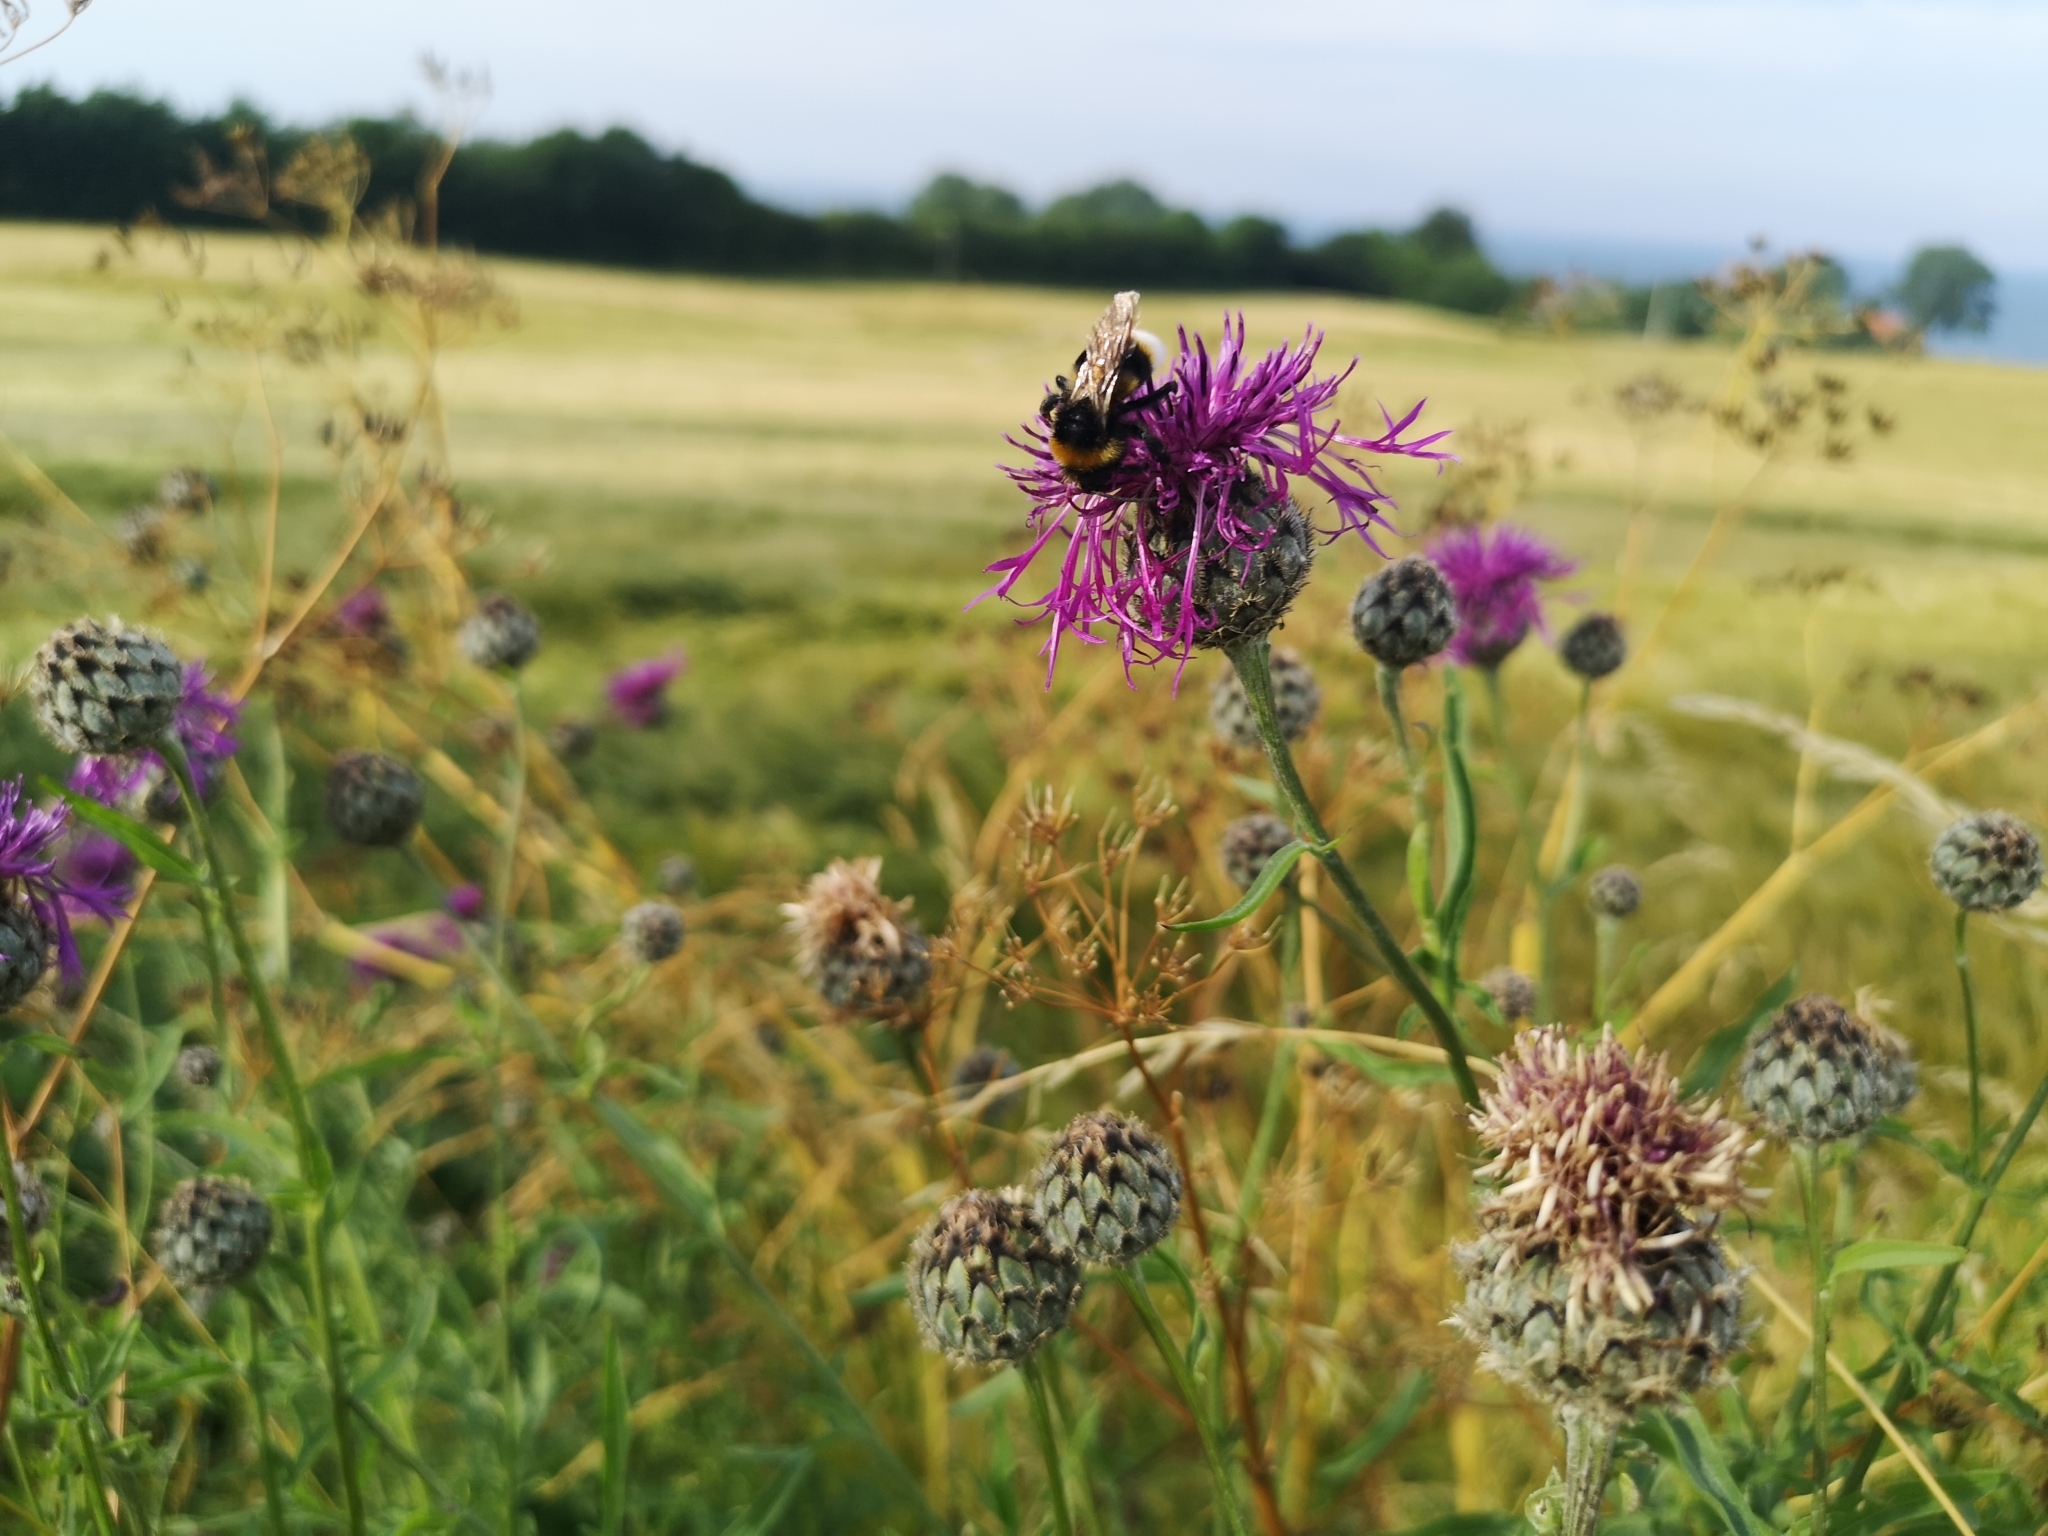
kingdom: Plantae
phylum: Tracheophyta
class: Magnoliopsida
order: Asterales
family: Asteraceae
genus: Centaurea
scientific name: Centaurea scabiosa
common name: Greater knapweed
